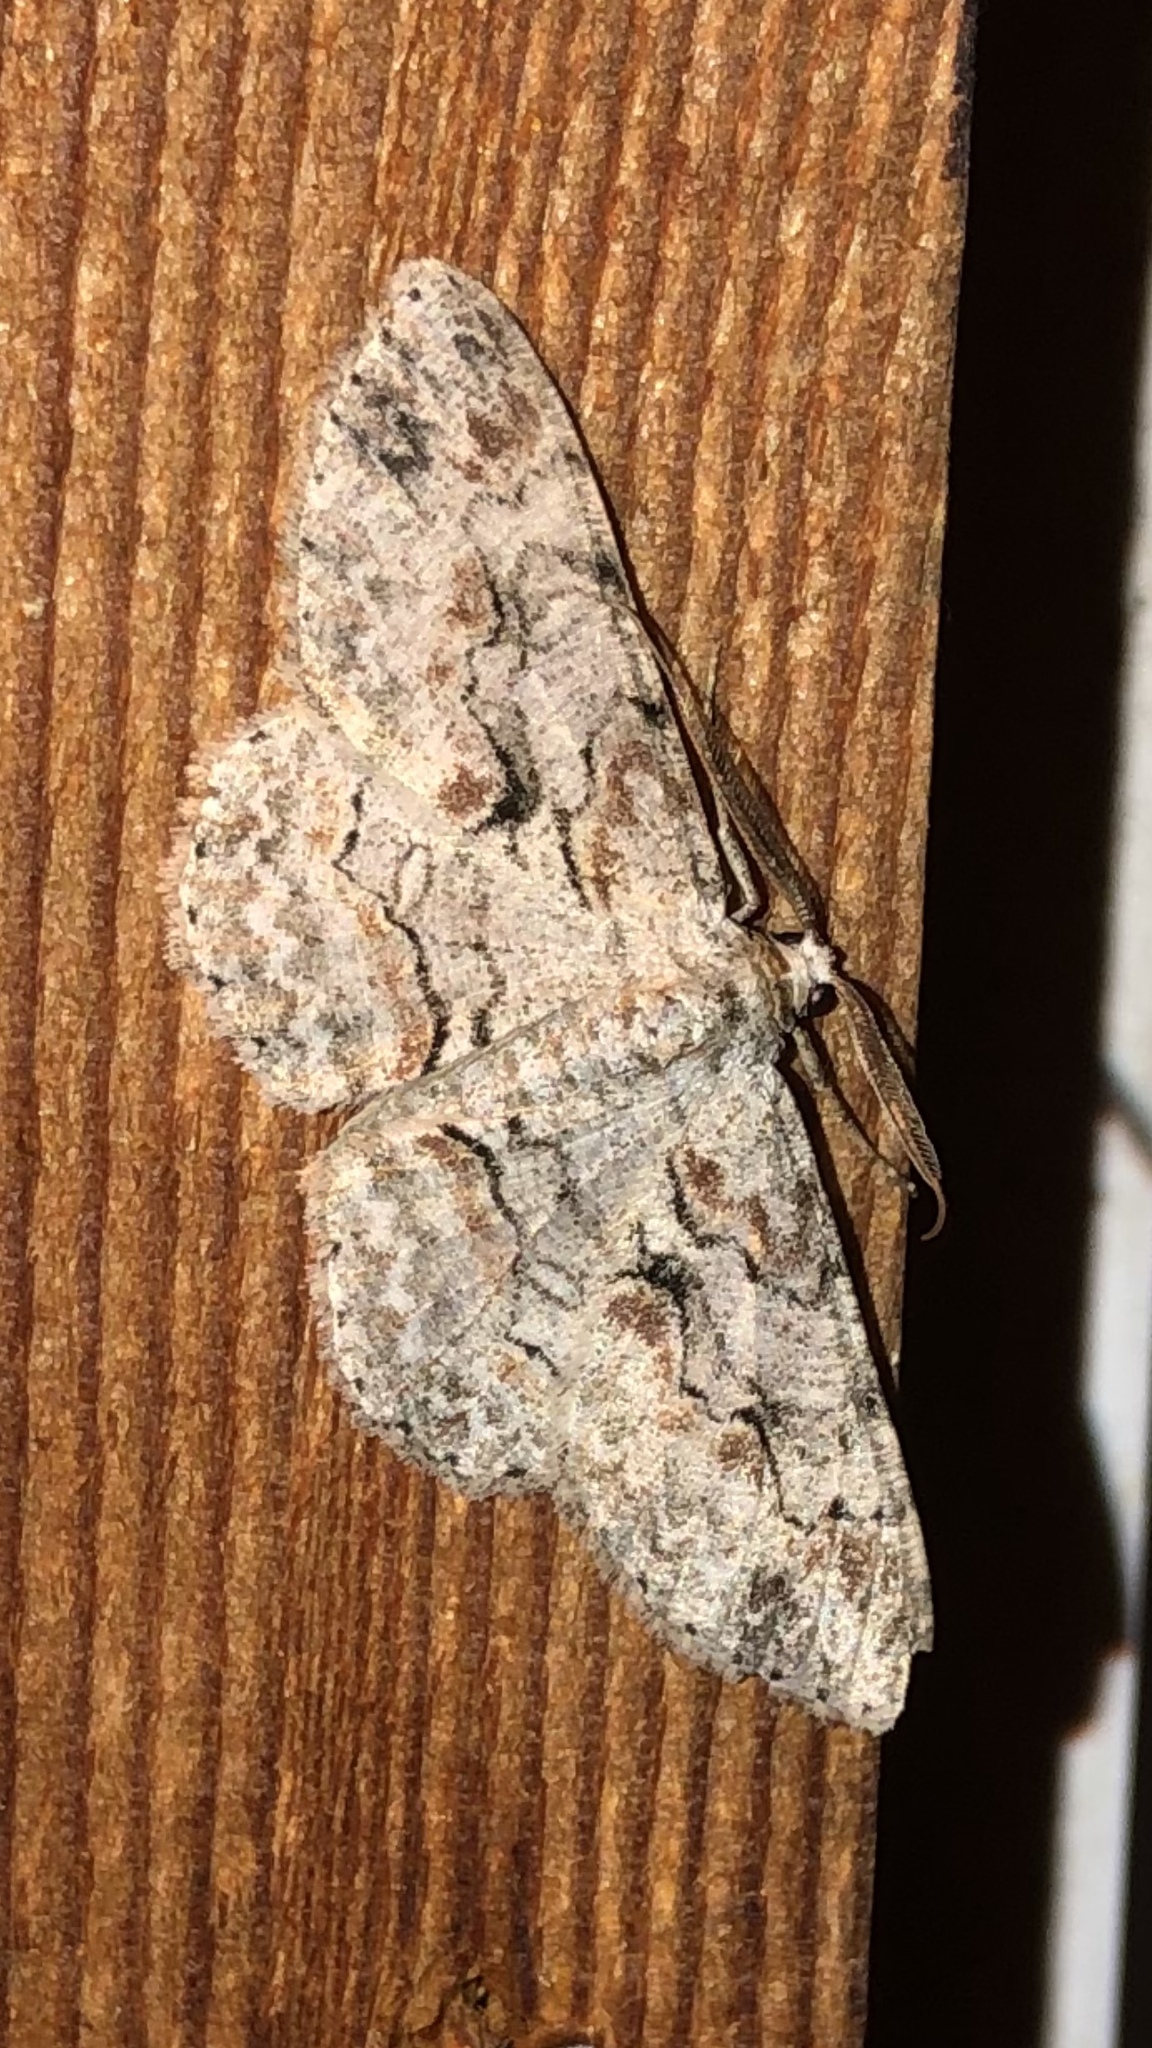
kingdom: Animalia
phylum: Arthropoda
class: Insecta
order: Lepidoptera
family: Geometridae
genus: Iridopsis
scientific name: Iridopsis defectaria
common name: Brown-shaded gray
